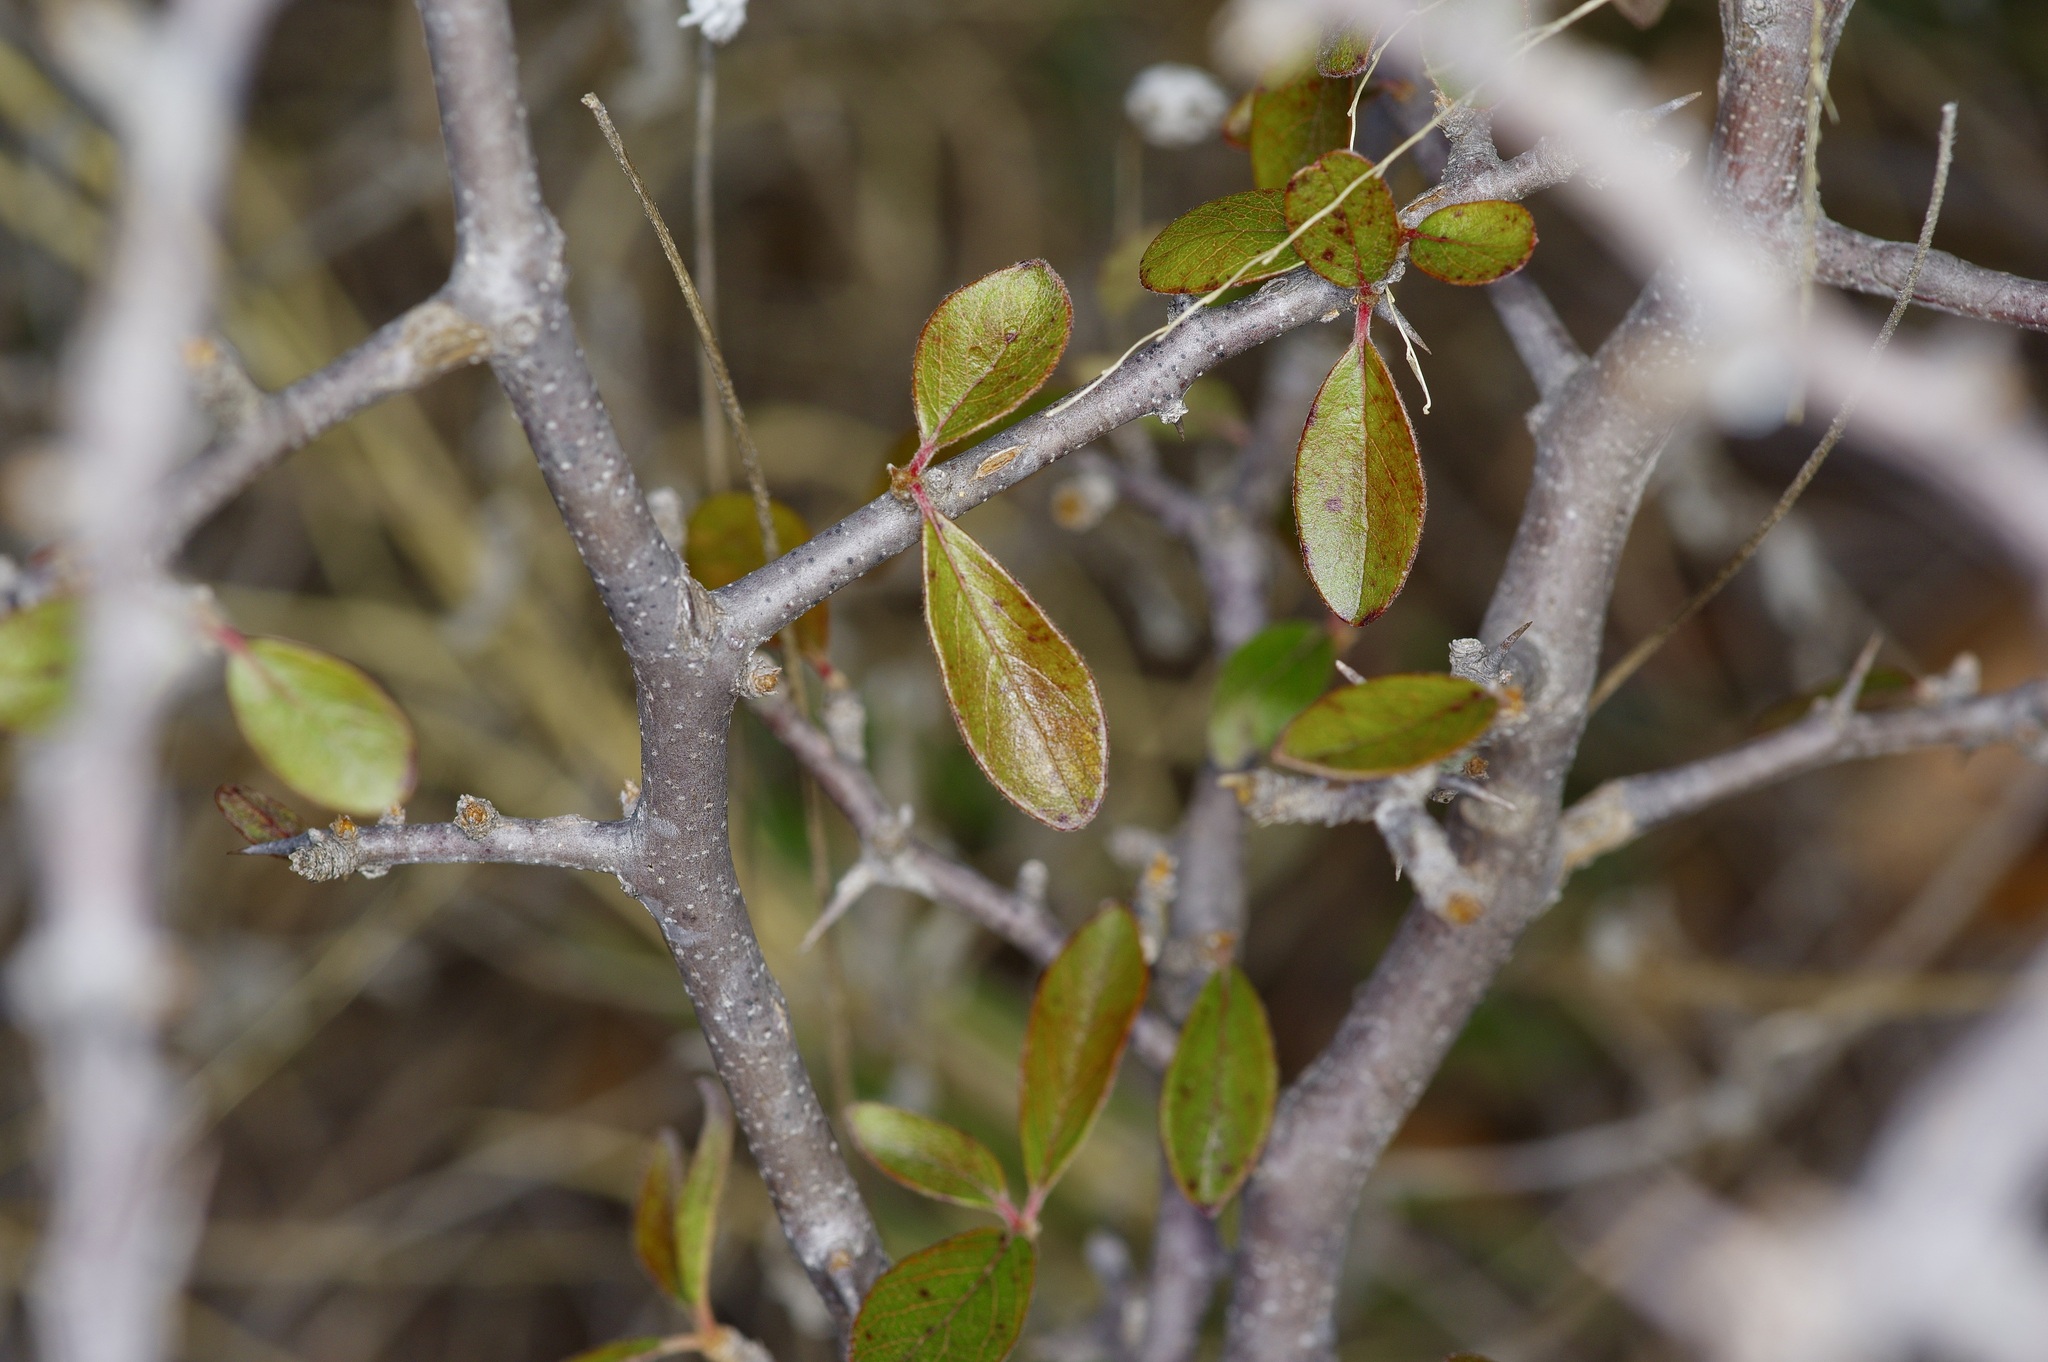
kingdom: Plantae
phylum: Tracheophyta
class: Magnoliopsida
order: Ericales
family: Sapotaceae
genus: Sideroxylon
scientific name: Sideroxylon lanuginosum
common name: Chittamwood
